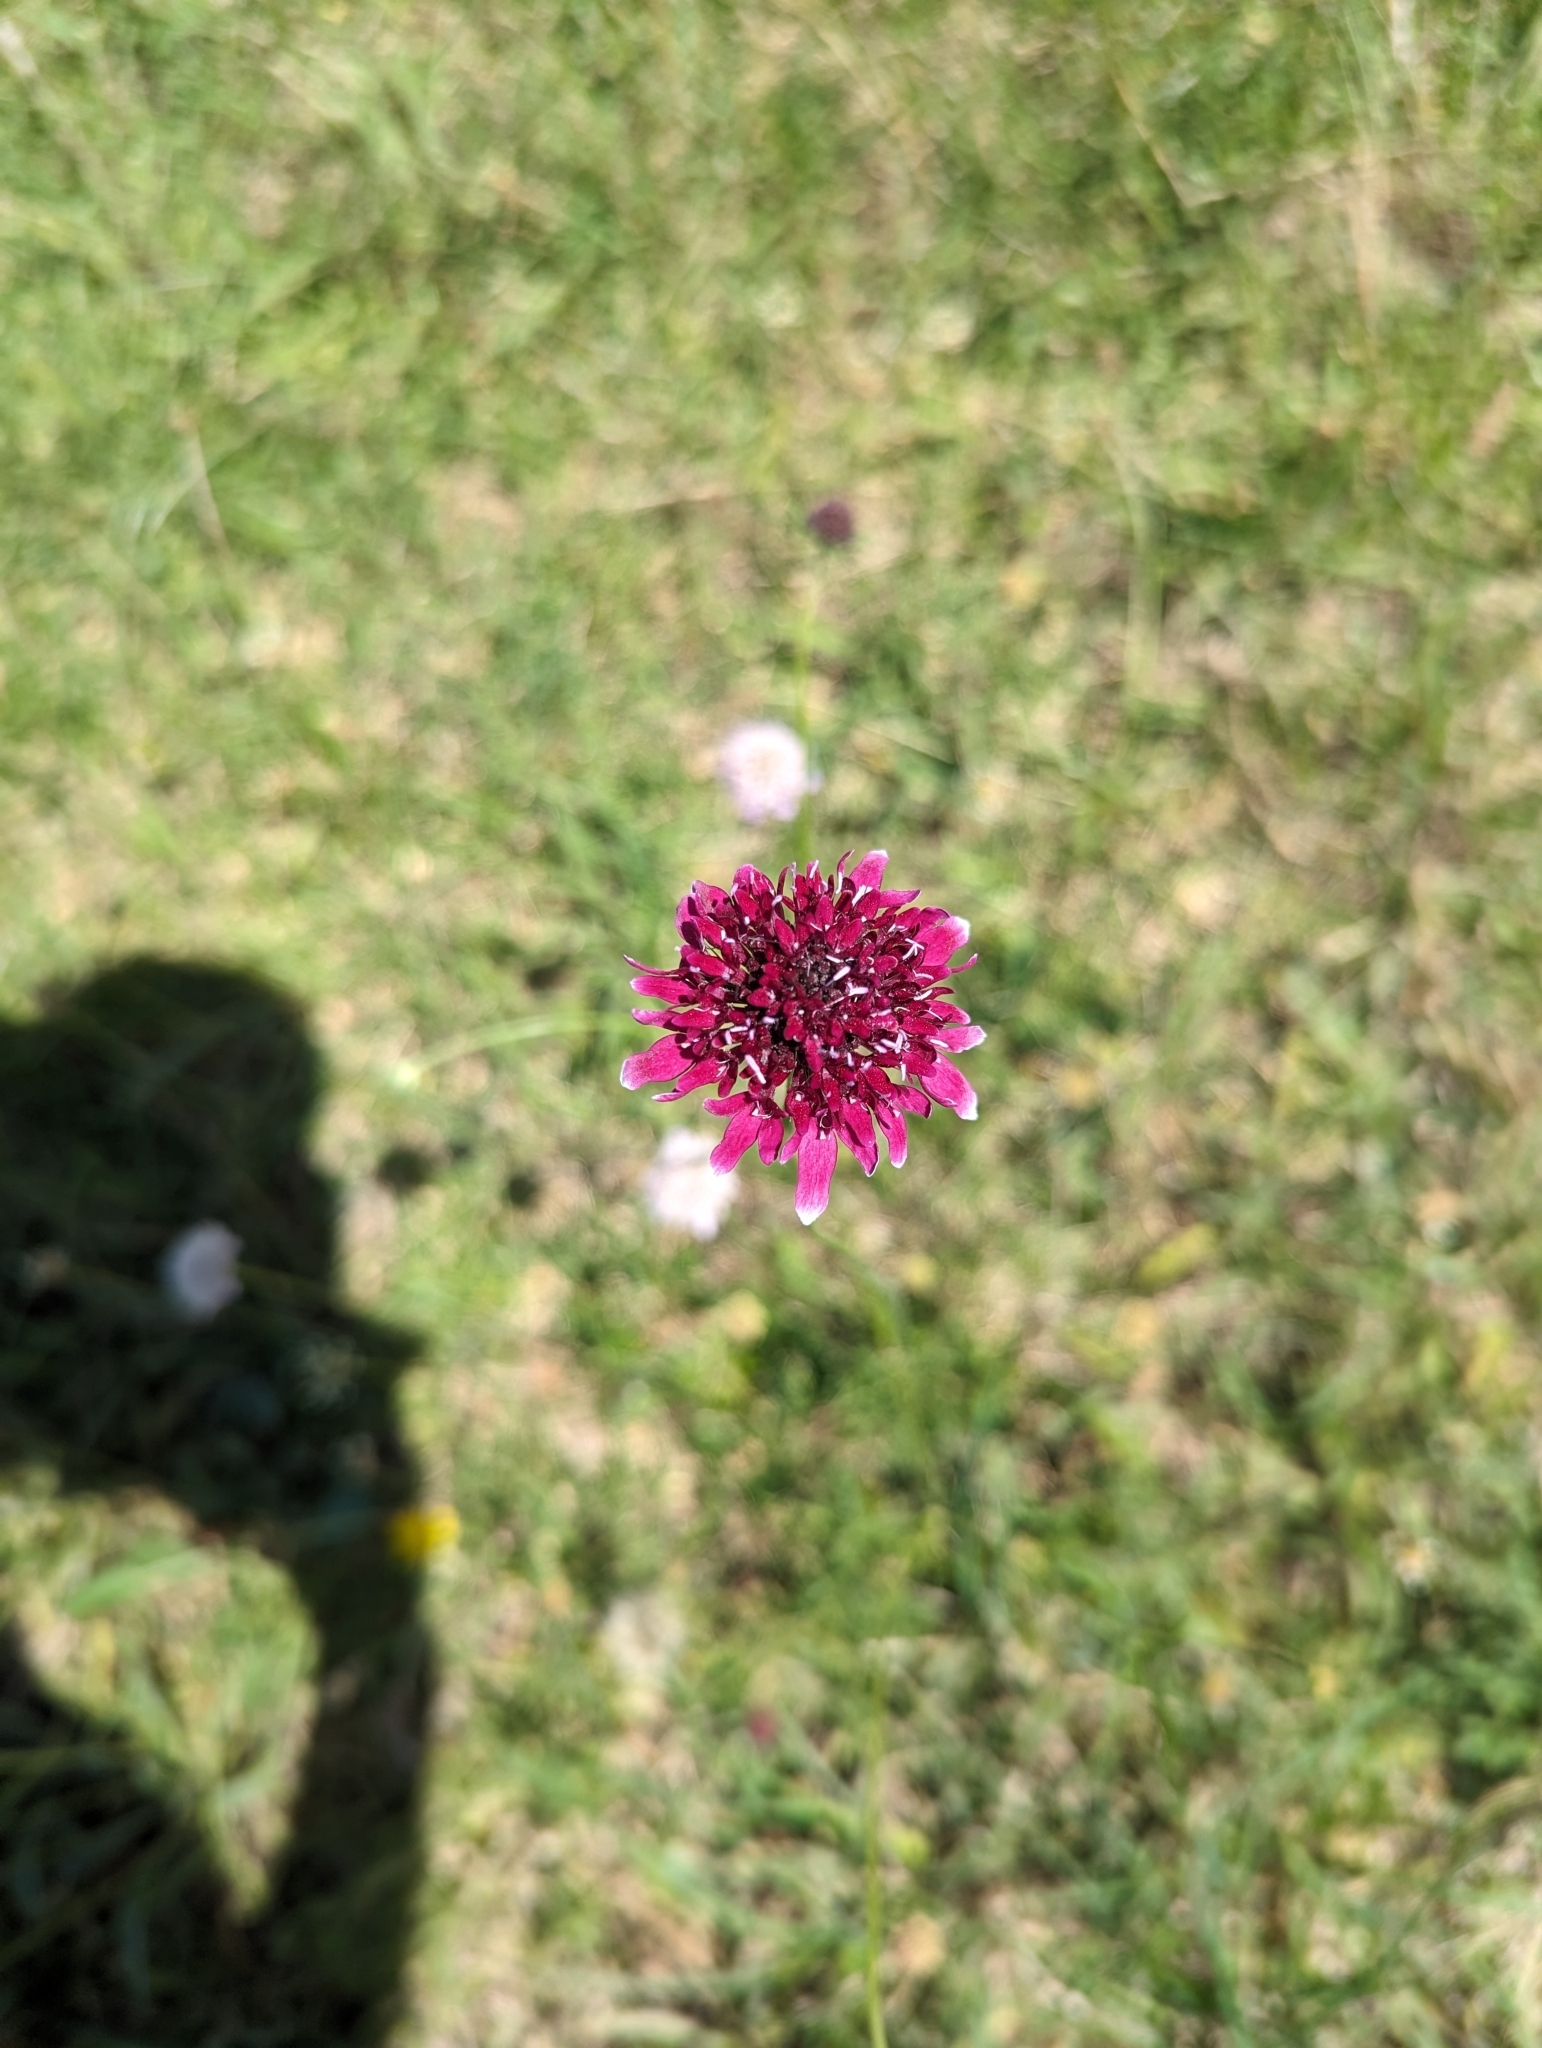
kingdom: Plantae
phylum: Tracheophyta
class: Magnoliopsida
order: Dipsacales
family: Caprifoliaceae
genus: Sixalix
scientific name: Sixalix atropurpurea
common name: Sweet scabious
